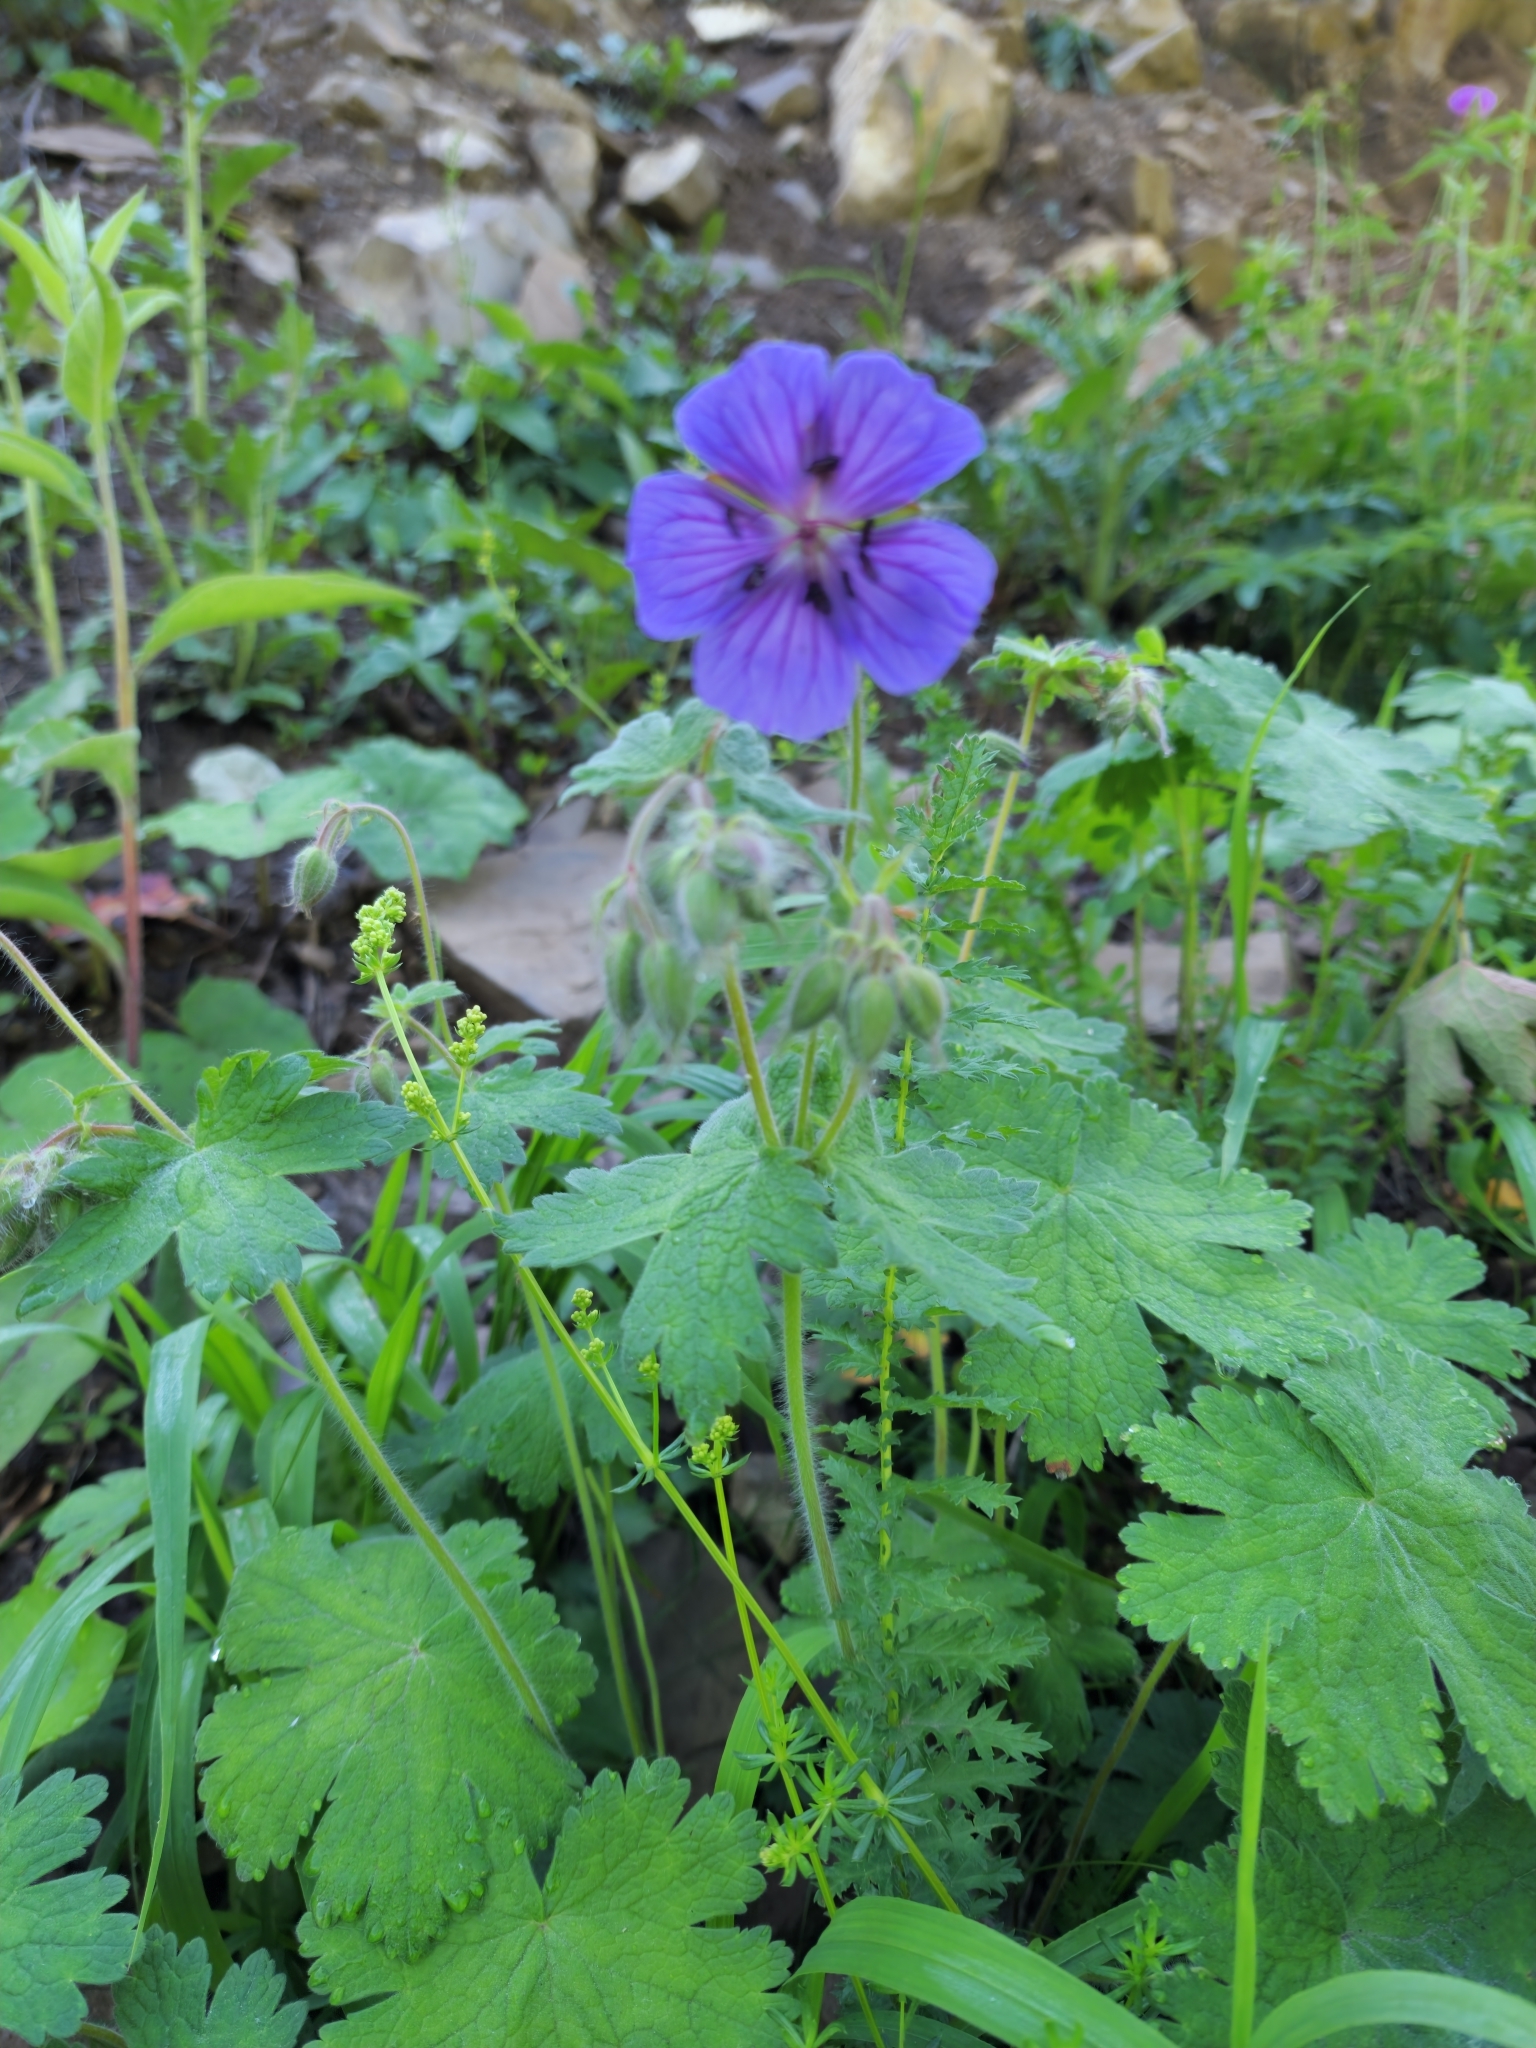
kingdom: Plantae
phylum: Tracheophyta
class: Magnoliopsida
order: Geraniales
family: Geraniaceae
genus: Geranium
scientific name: Geranium pratense
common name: Meadow crane's-bill
